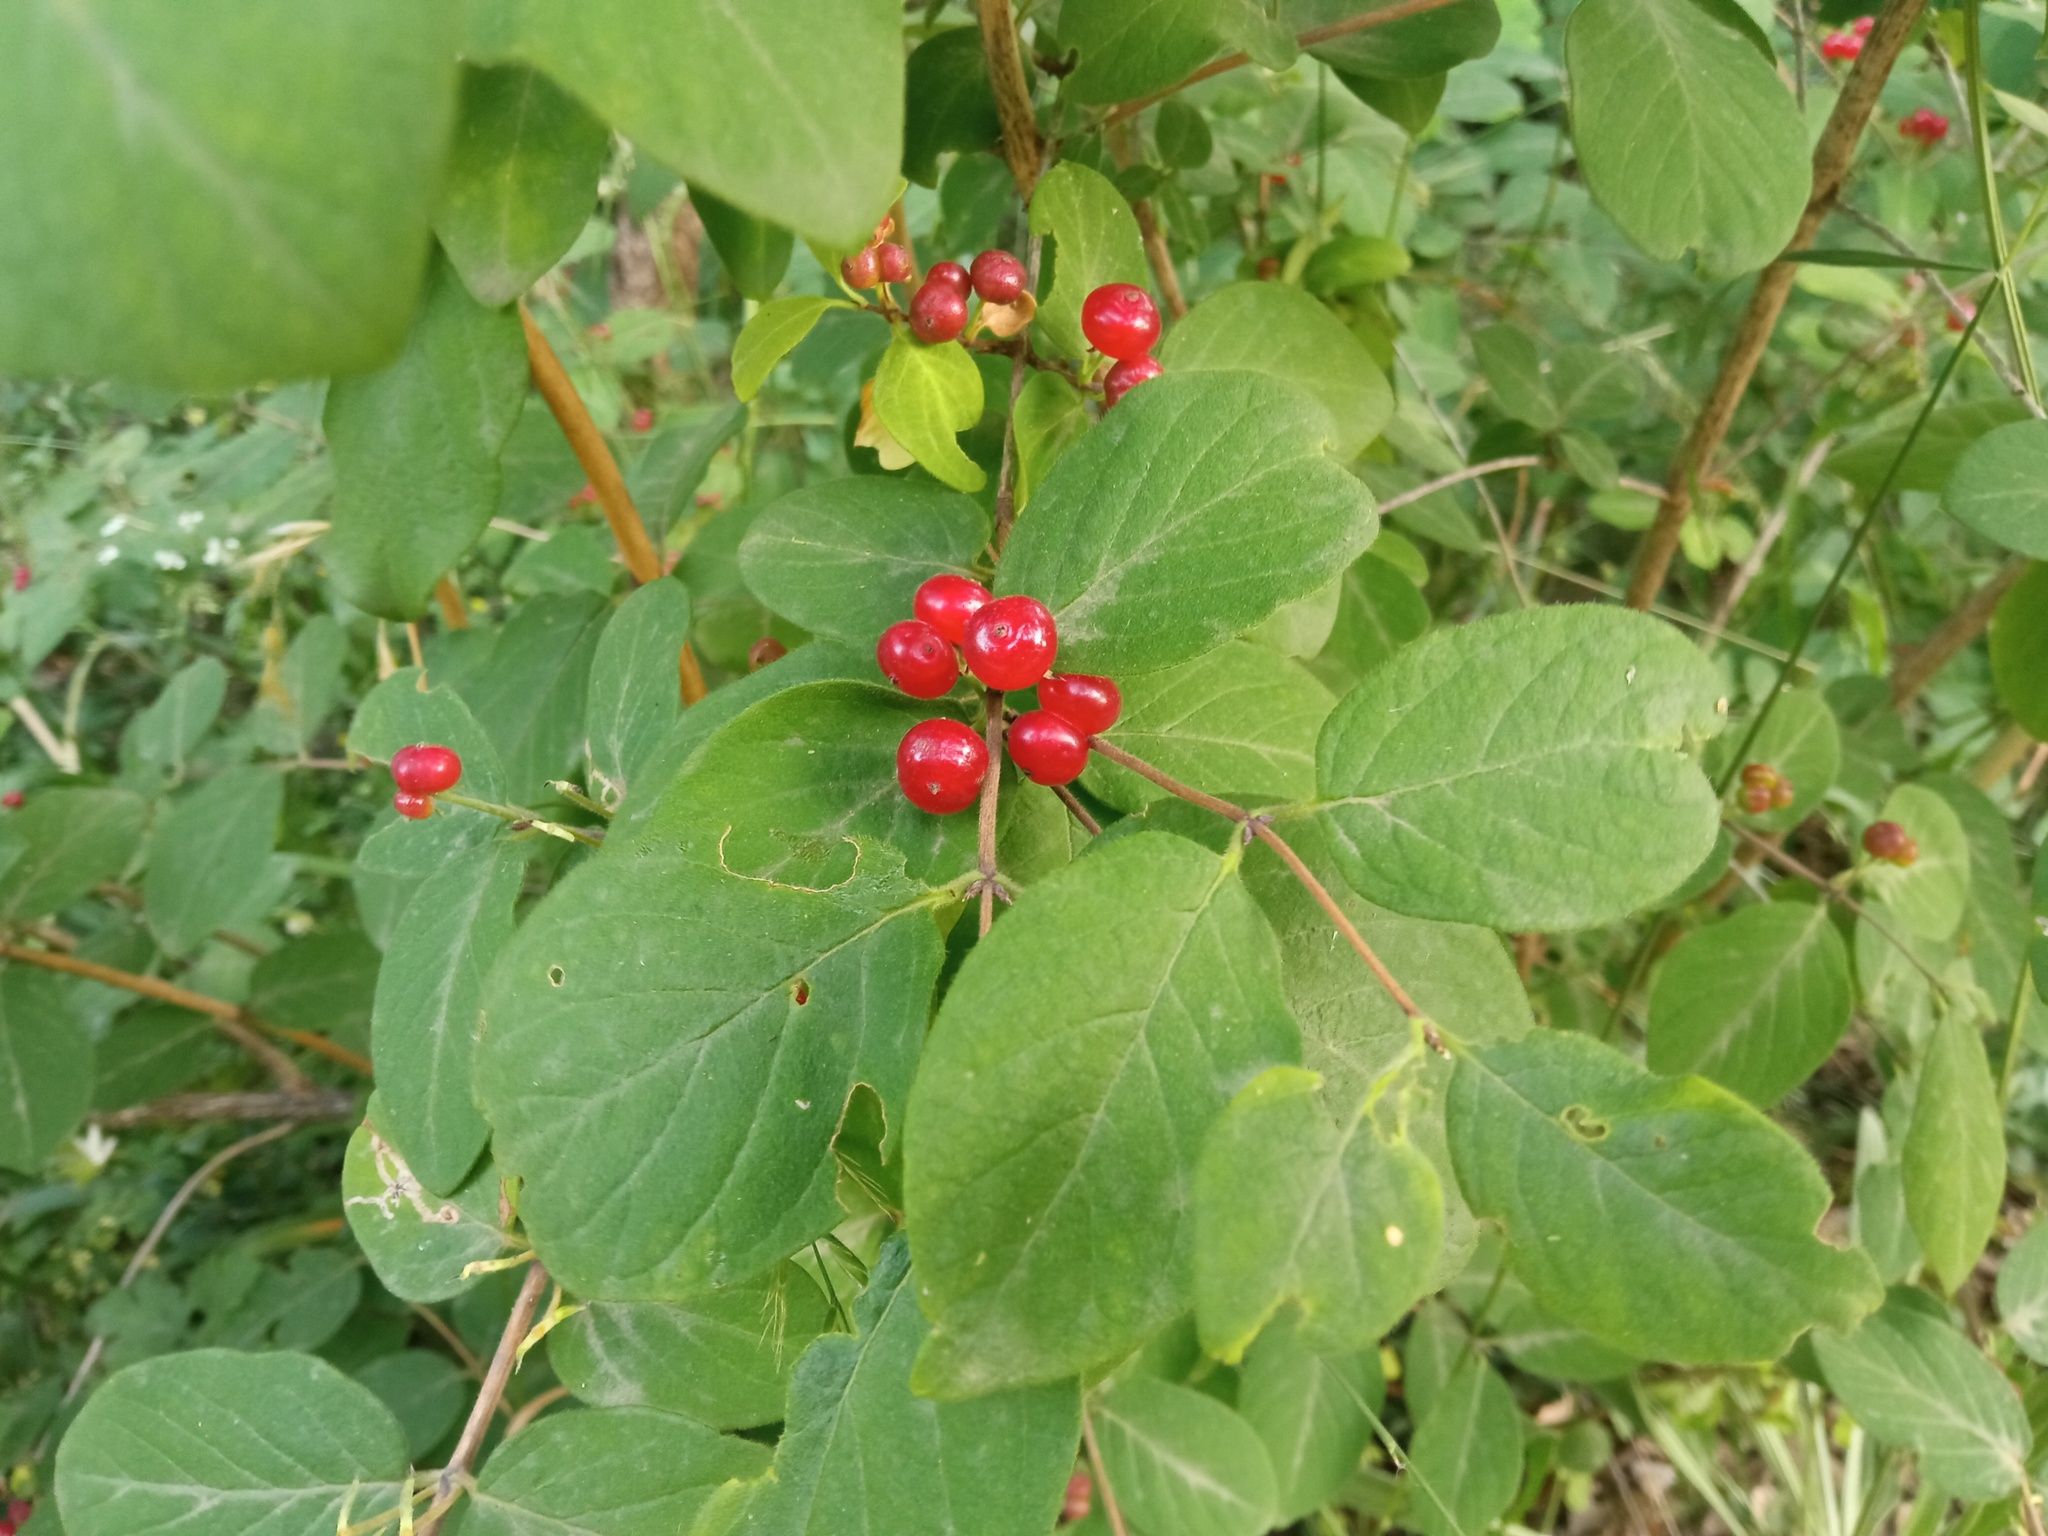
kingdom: Plantae
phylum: Tracheophyta
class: Magnoliopsida
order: Dipsacales
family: Caprifoliaceae
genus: Lonicera
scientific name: Lonicera xylosteum
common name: Fly honeysuckle
